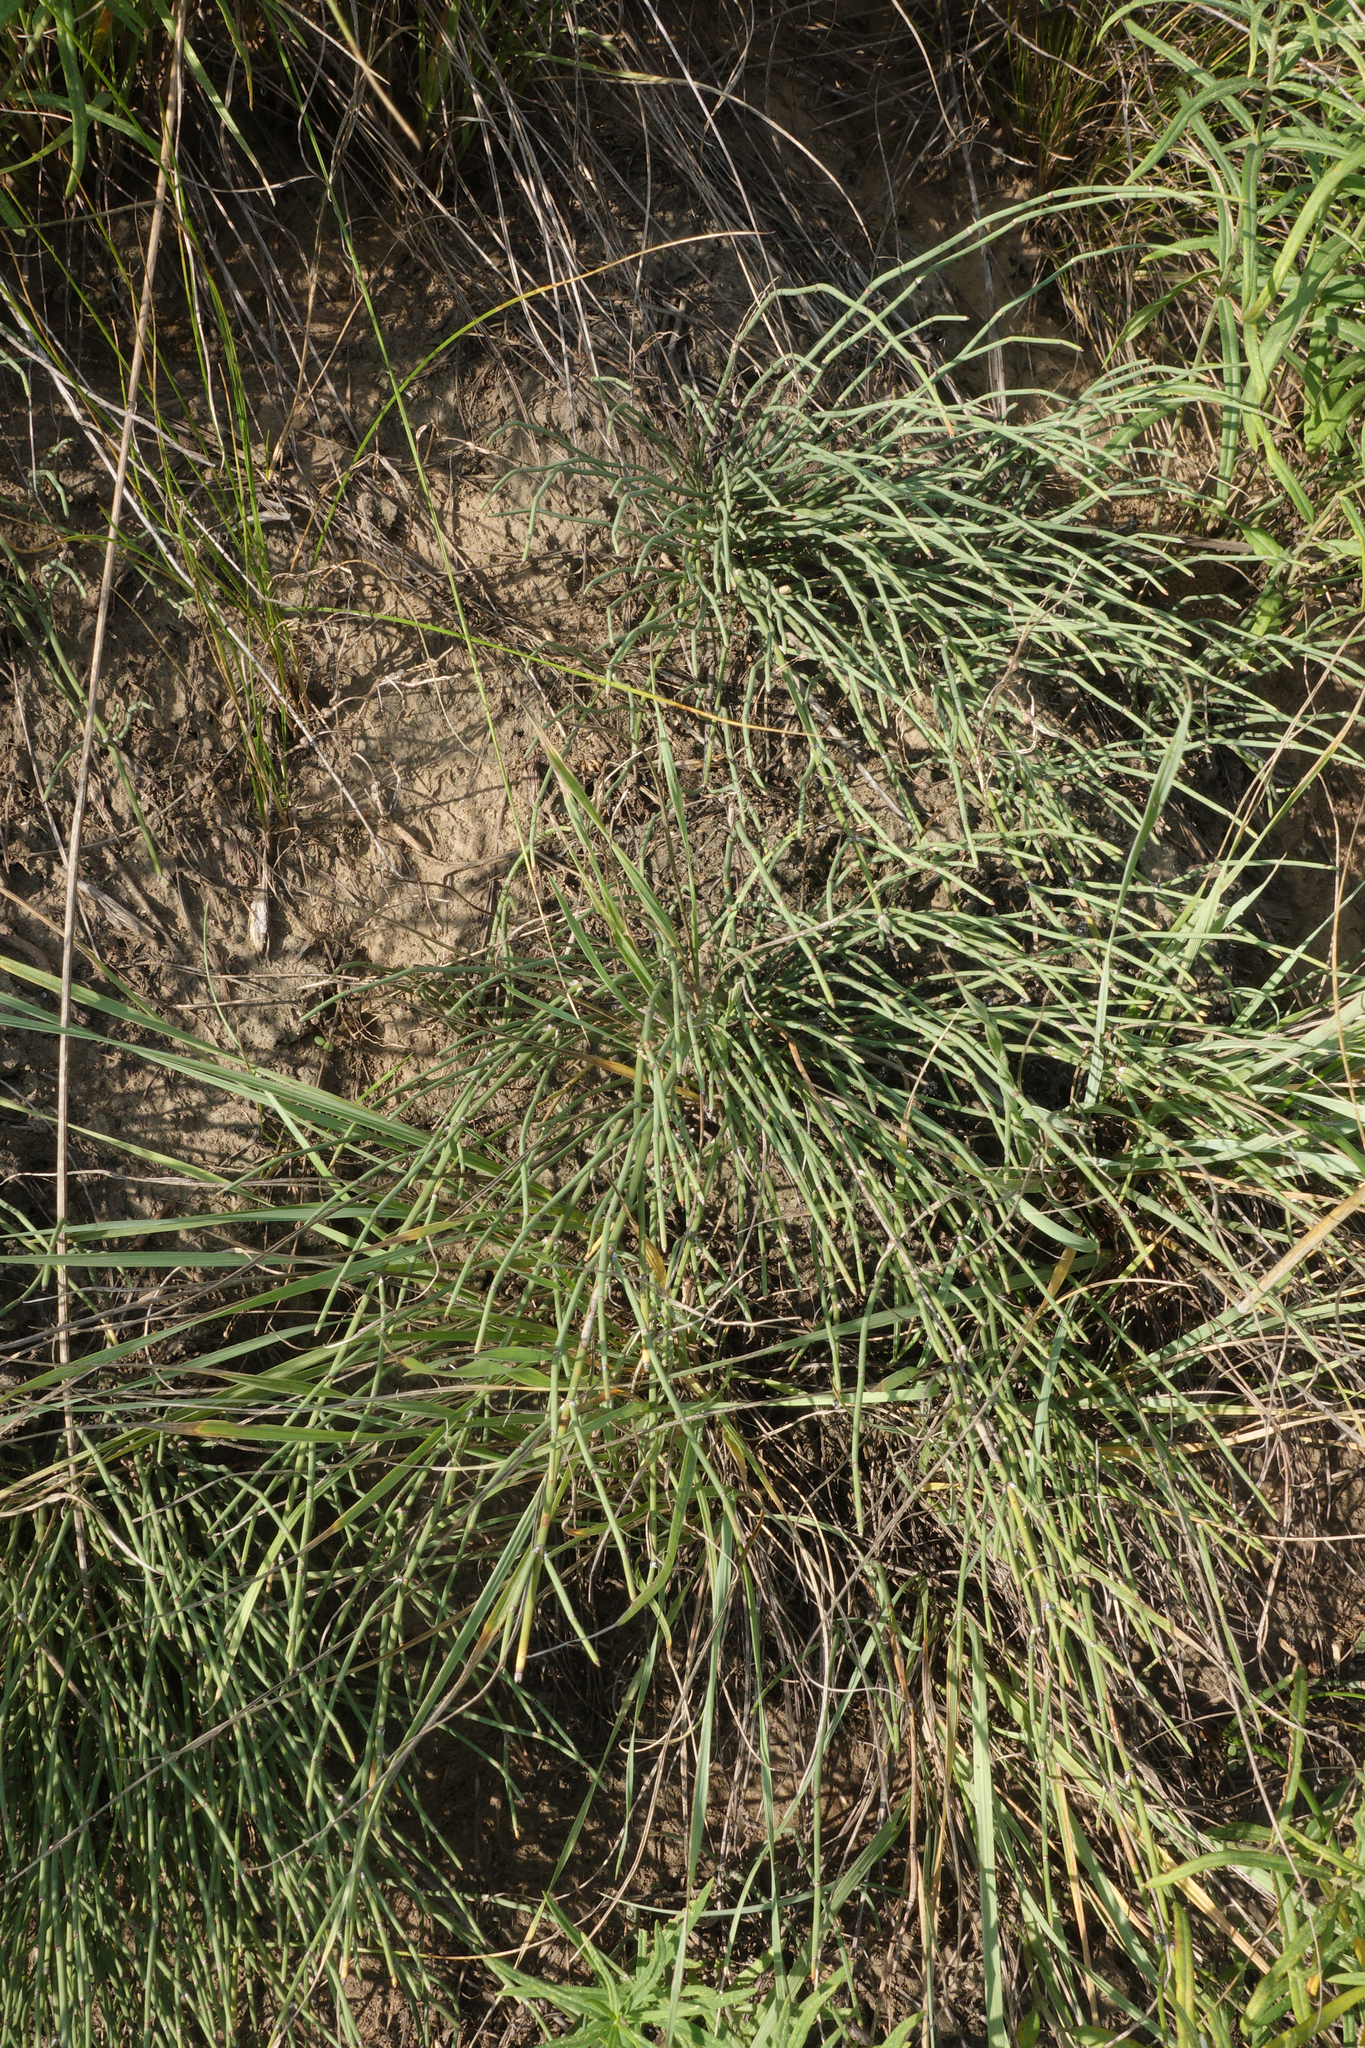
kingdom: Plantae
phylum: Tracheophyta
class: Gnetopsida
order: Ephedrales
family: Ephedraceae
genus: Ephedra
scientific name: Ephedra distachya
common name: Sea grape
